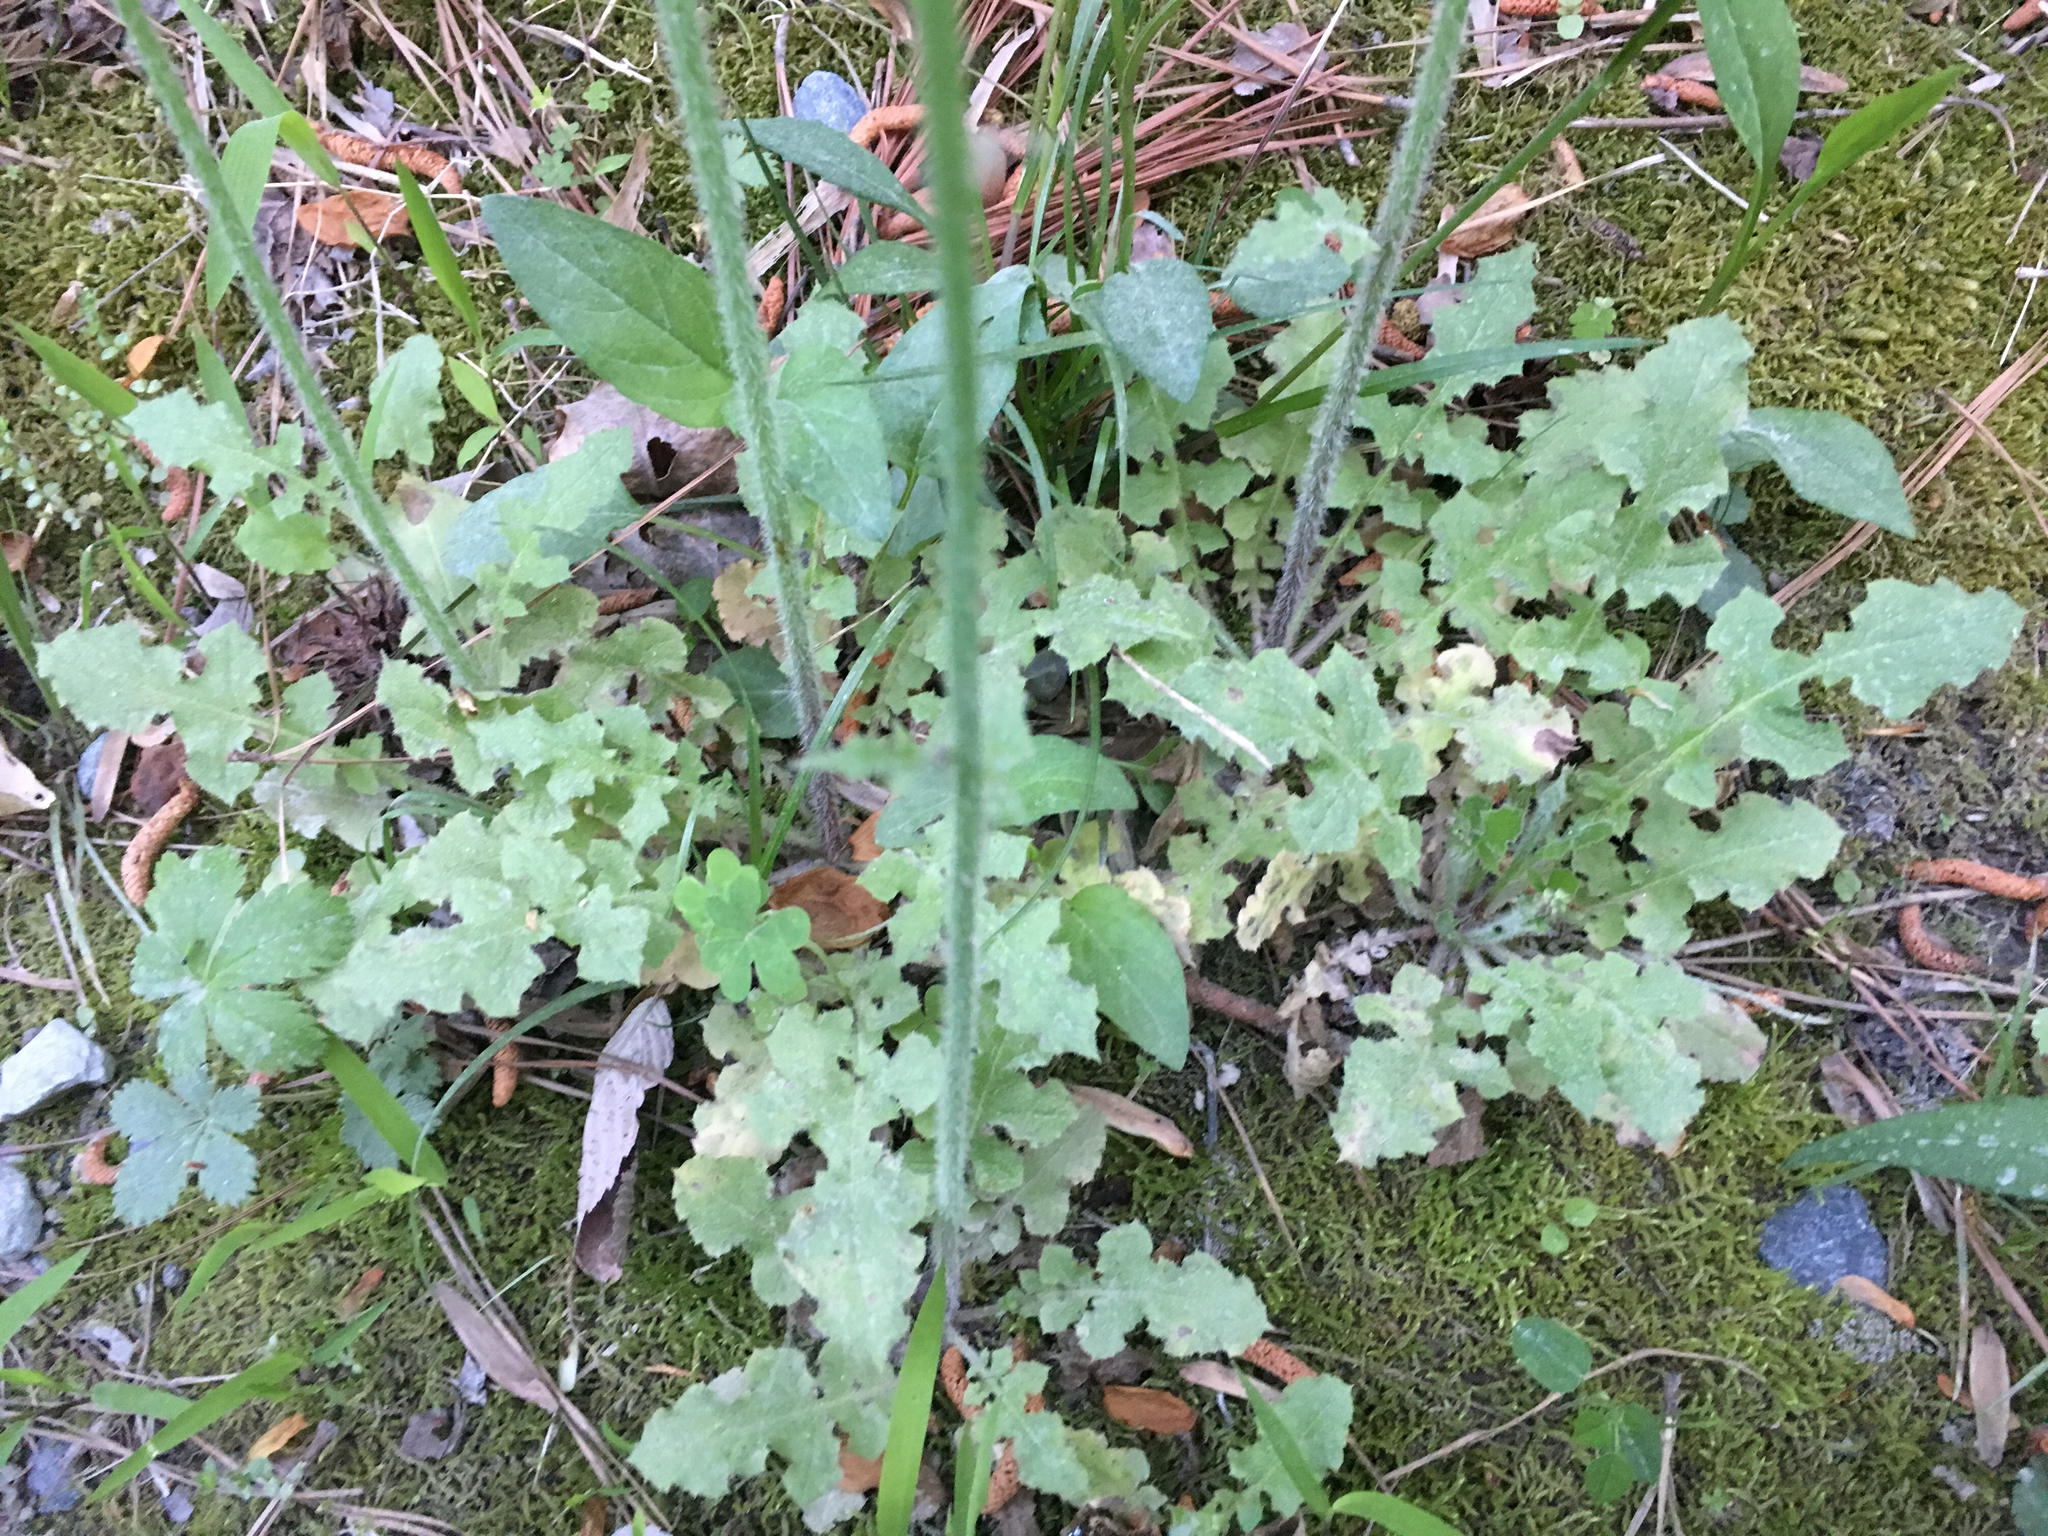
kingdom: Plantae
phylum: Tracheophyta
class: Magnoliopsida
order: Asterales
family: Asteraceae
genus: Youngia
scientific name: Youngia japonica
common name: Oriental false hawksbeard
